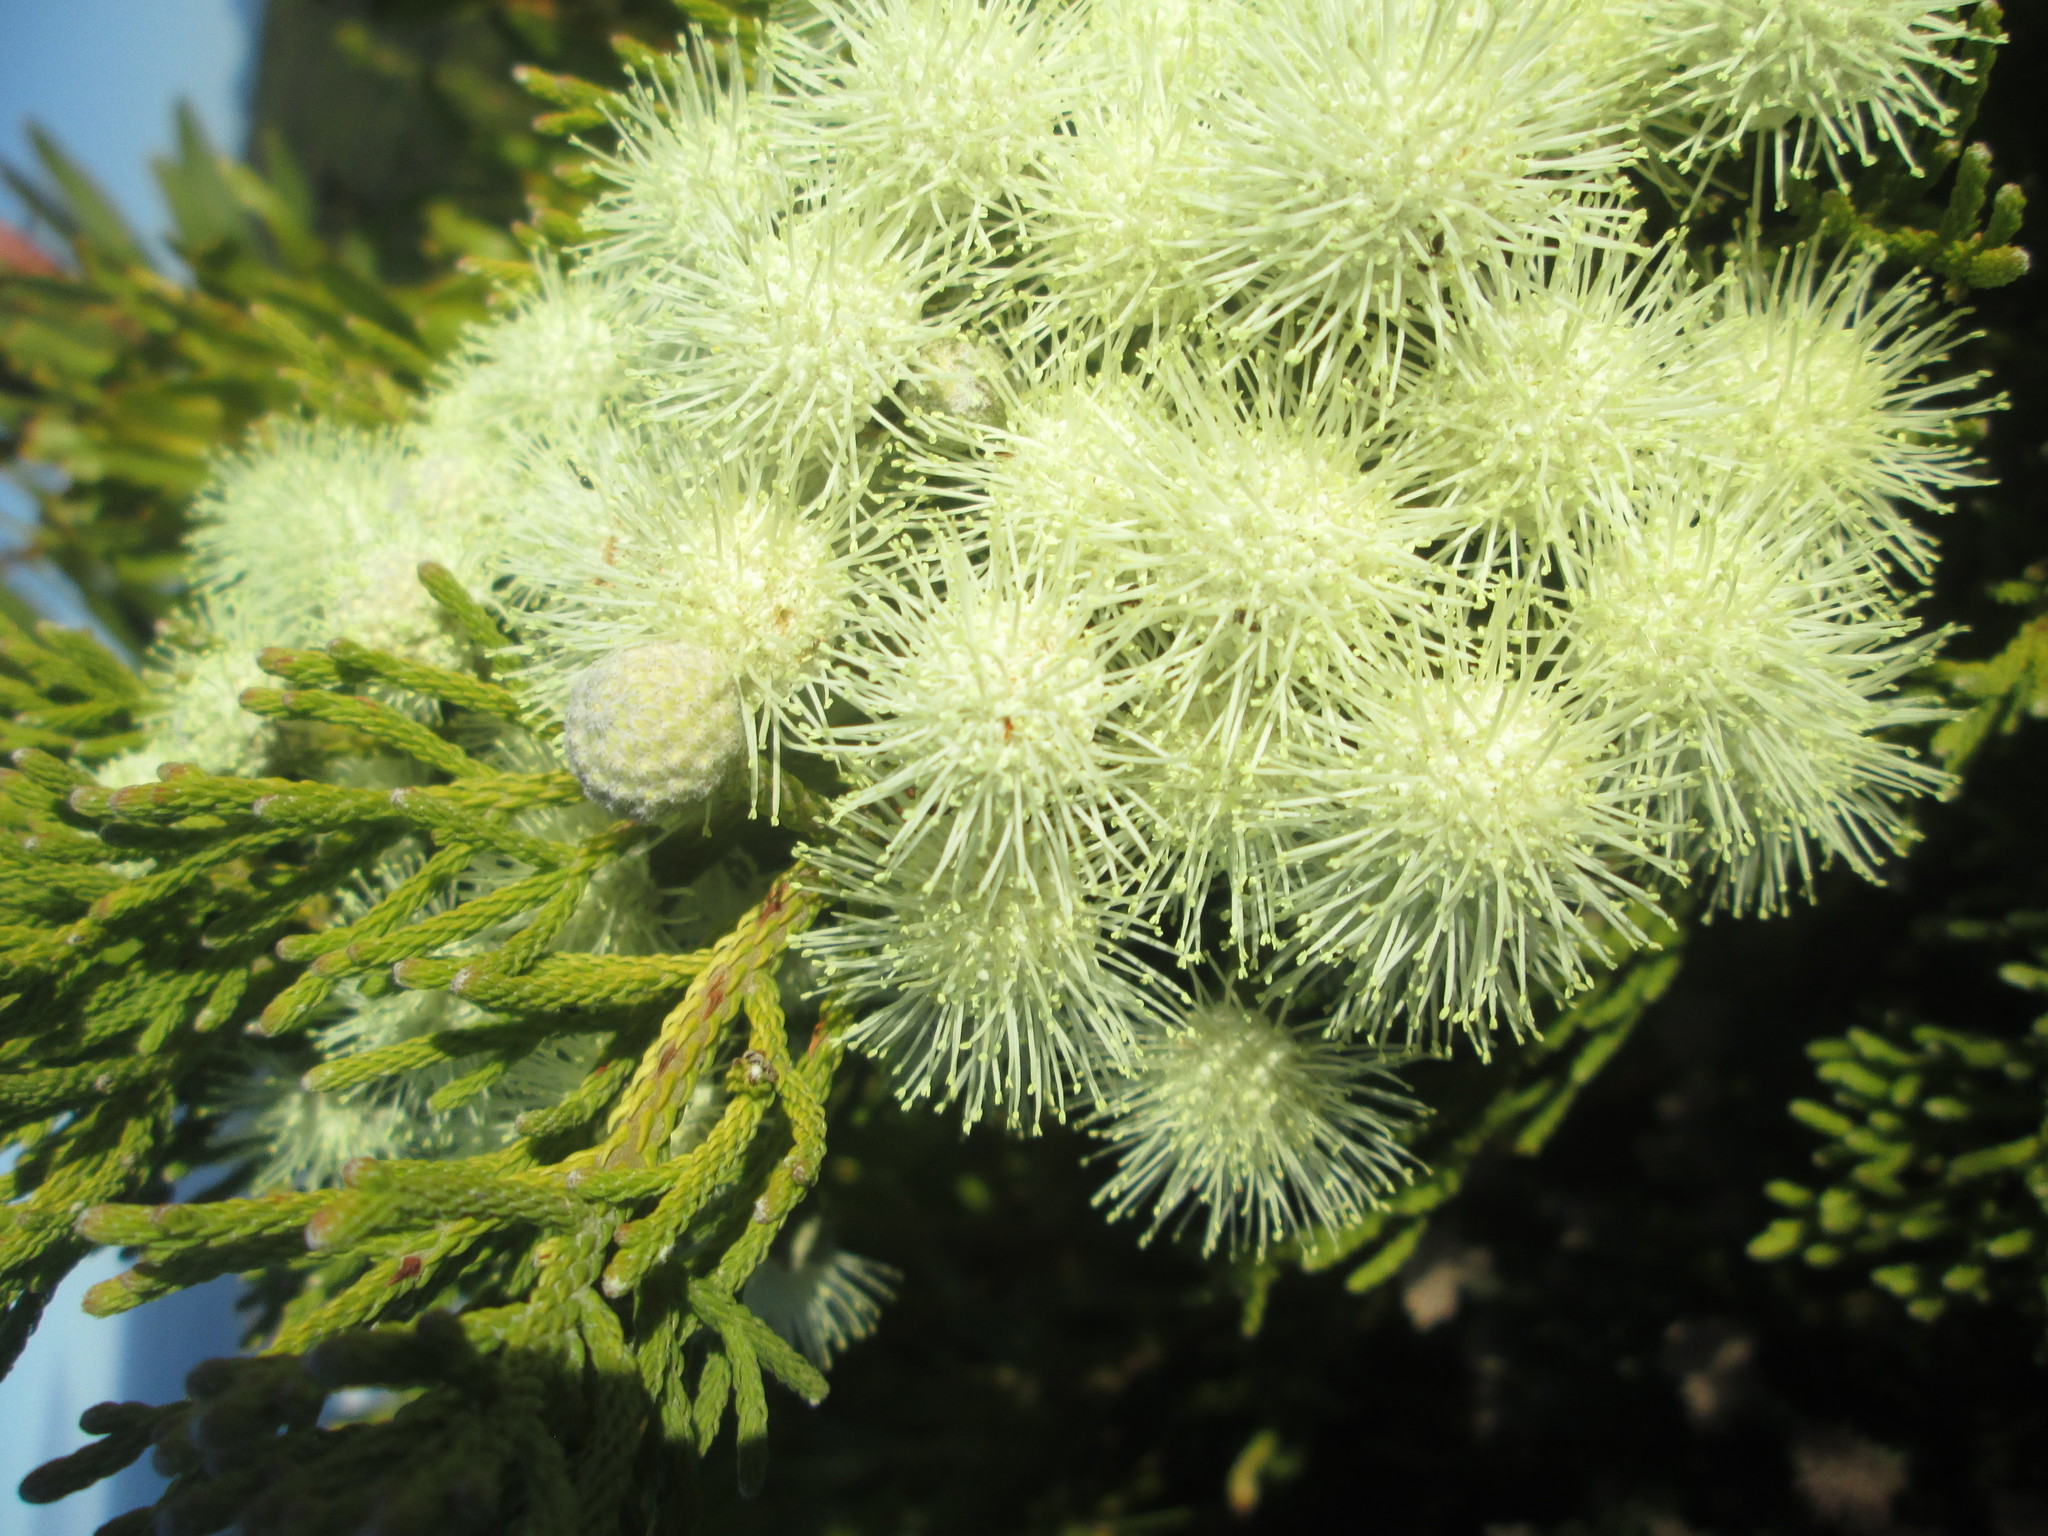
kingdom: Plantae
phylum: Tracheophyta
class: Magnoliopsida
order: Bruniales
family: Bruniaceae
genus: Brunia
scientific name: Brunia noduliflora
